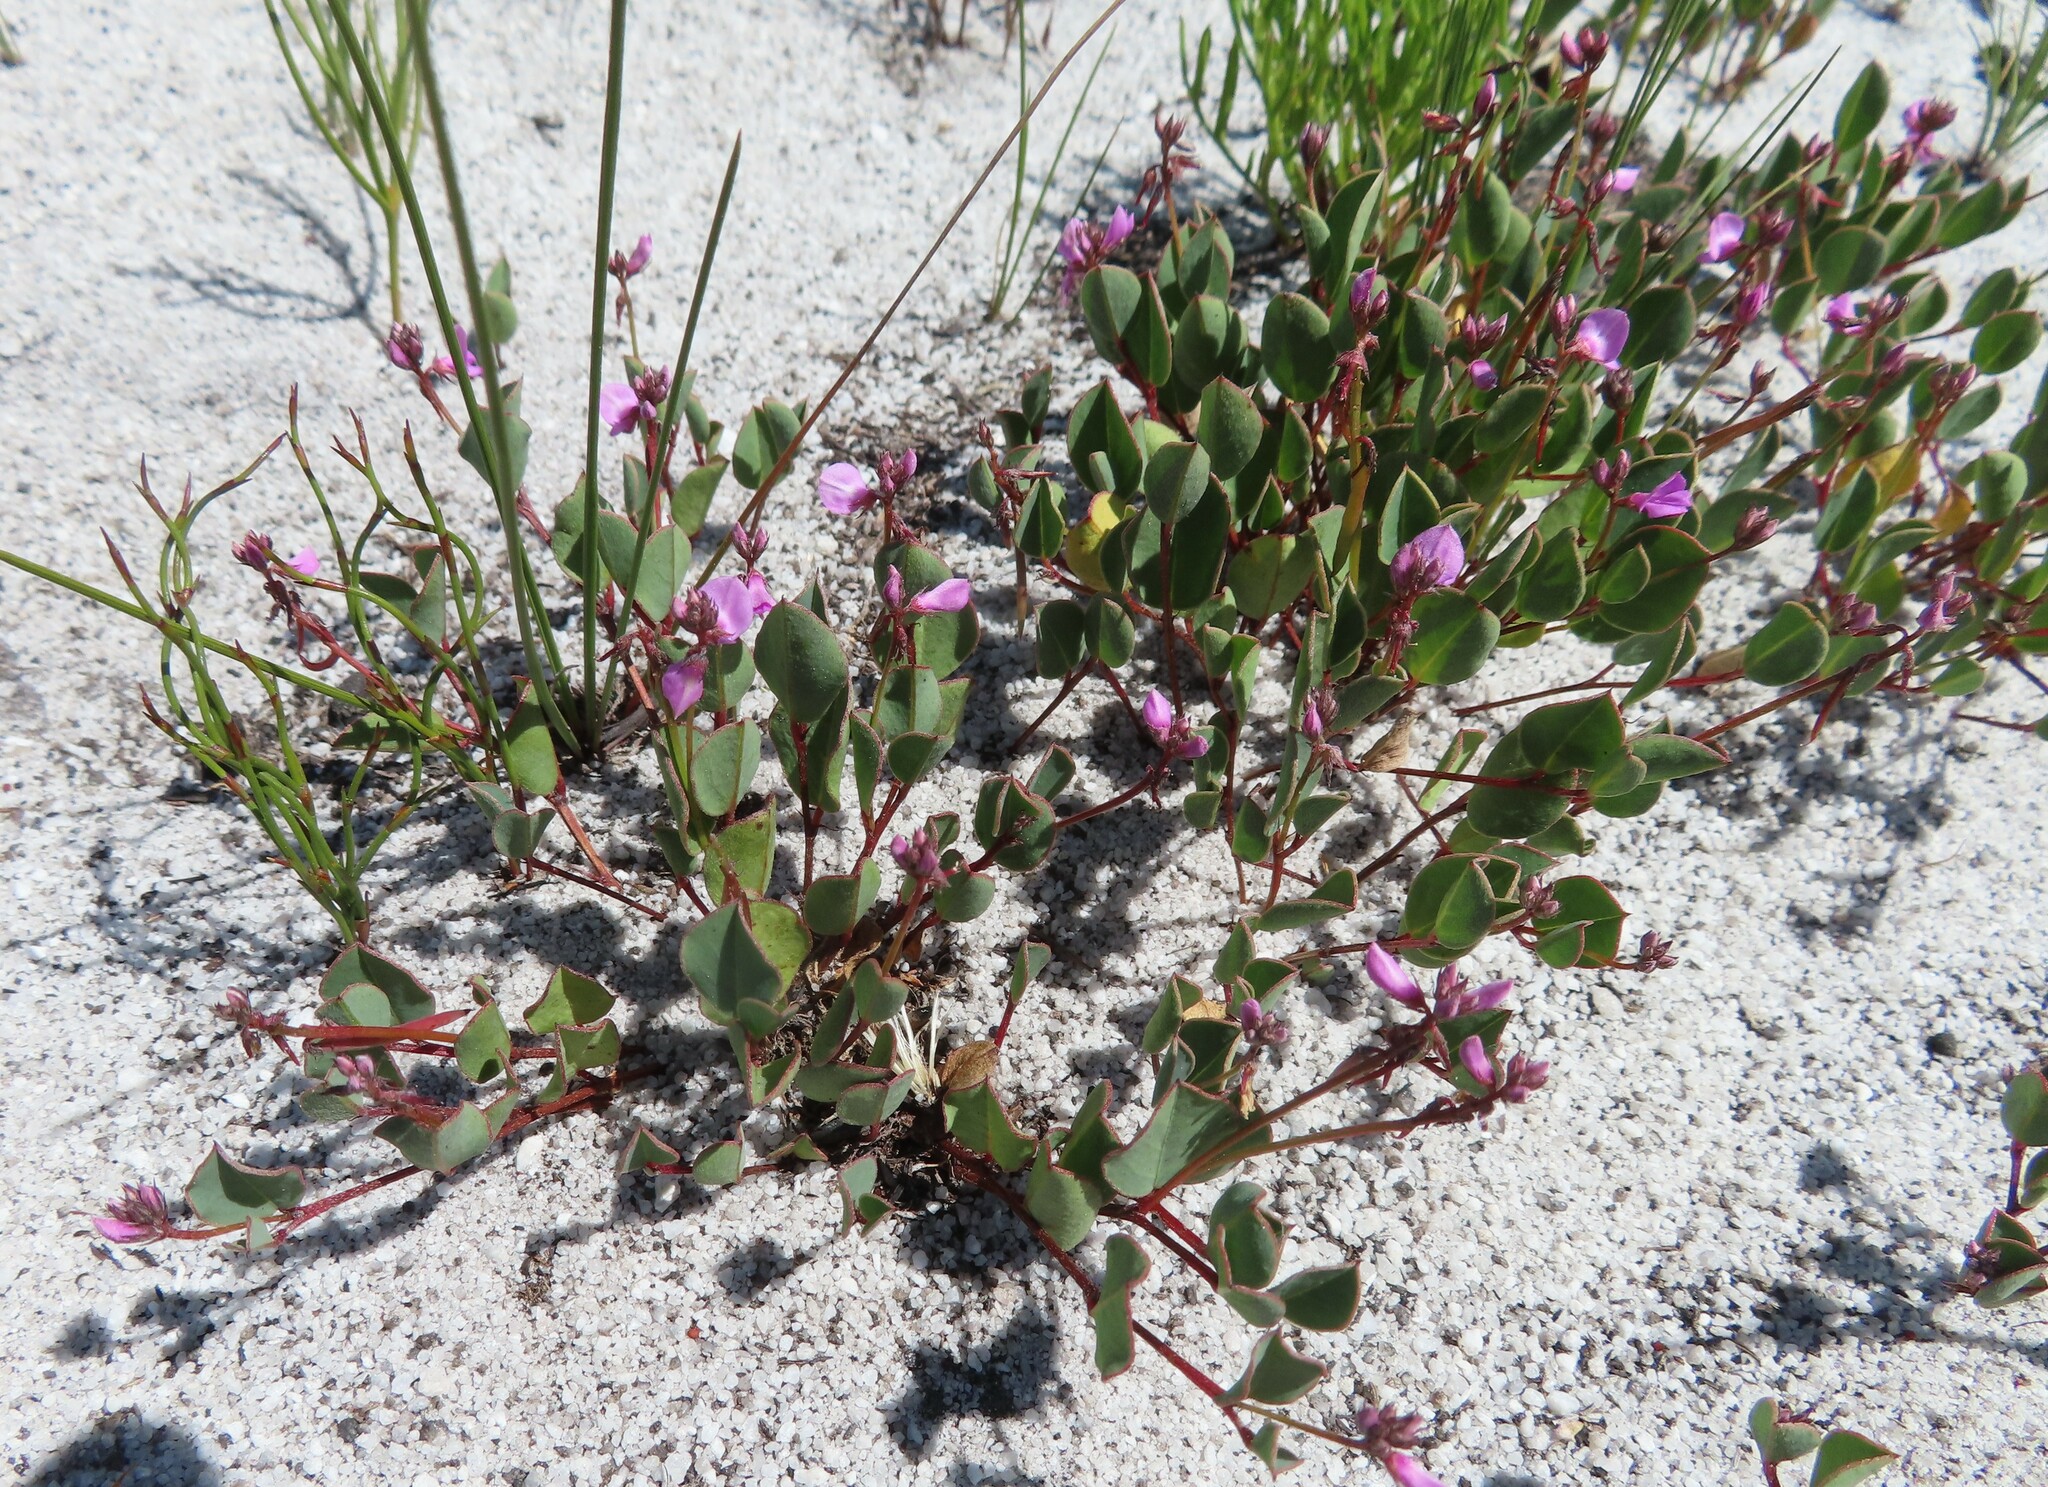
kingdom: Plantae
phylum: Tracheophyta
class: Magnoliopsida
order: Fabales
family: Fabaceae
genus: Indigofera
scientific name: Indigofera ovata
